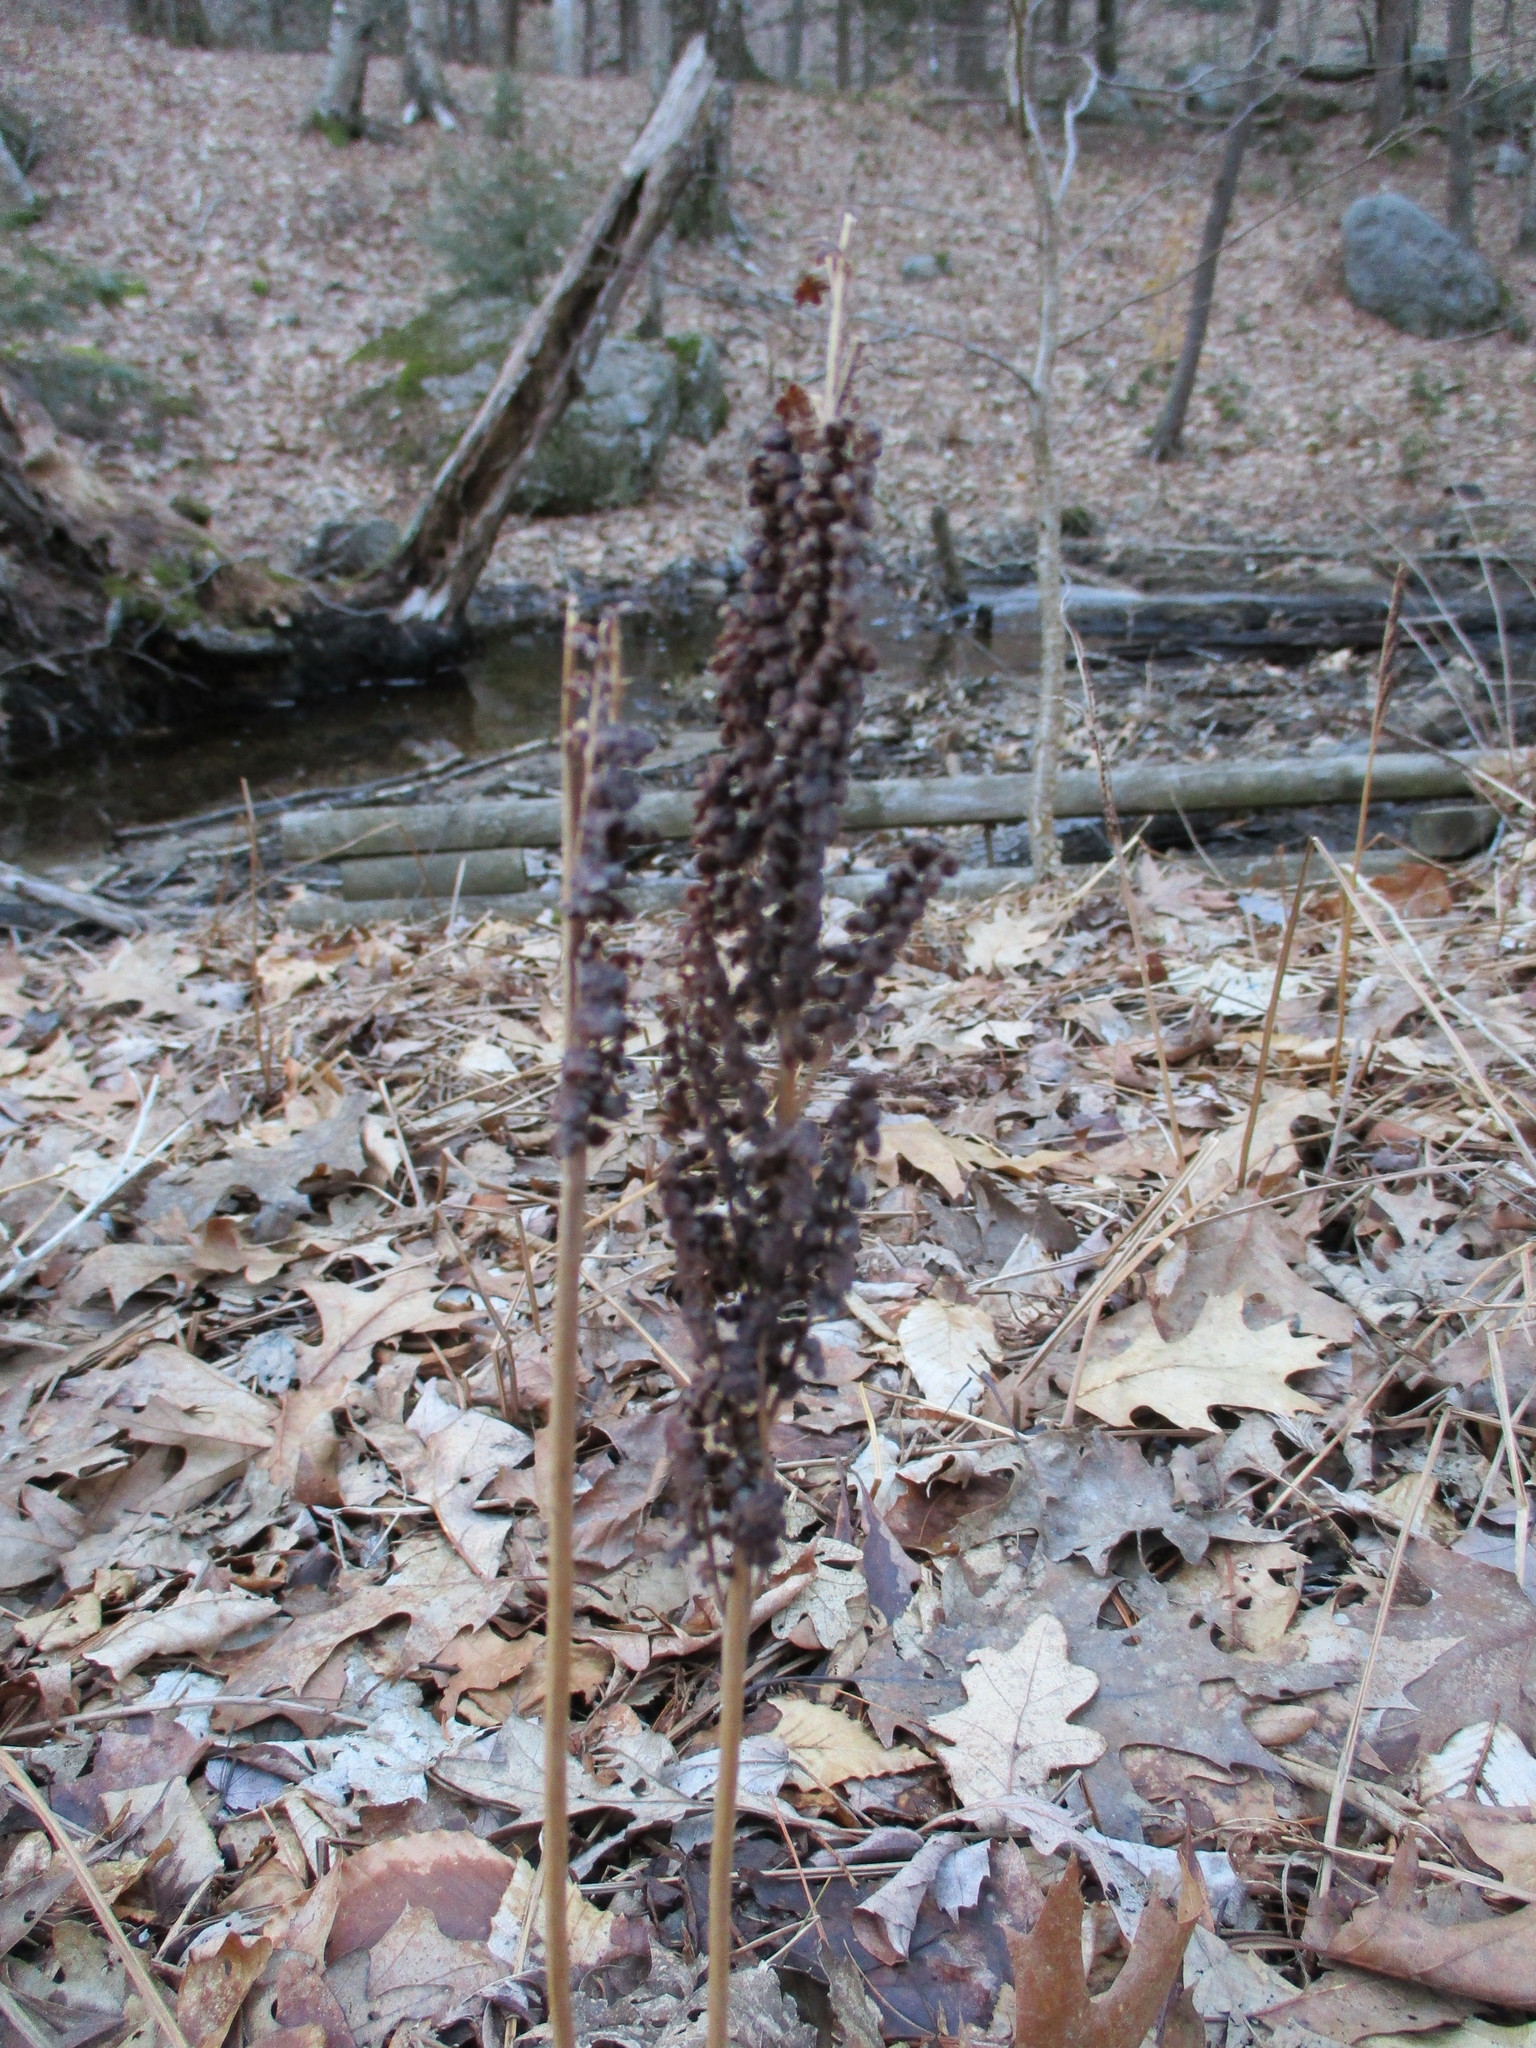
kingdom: Plantae
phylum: Tracheophyta
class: Polypodiopsida
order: Polypodiales
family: Onocleaceae
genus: Onoclea
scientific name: Onoclea sensibilis
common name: Sensitive fern
